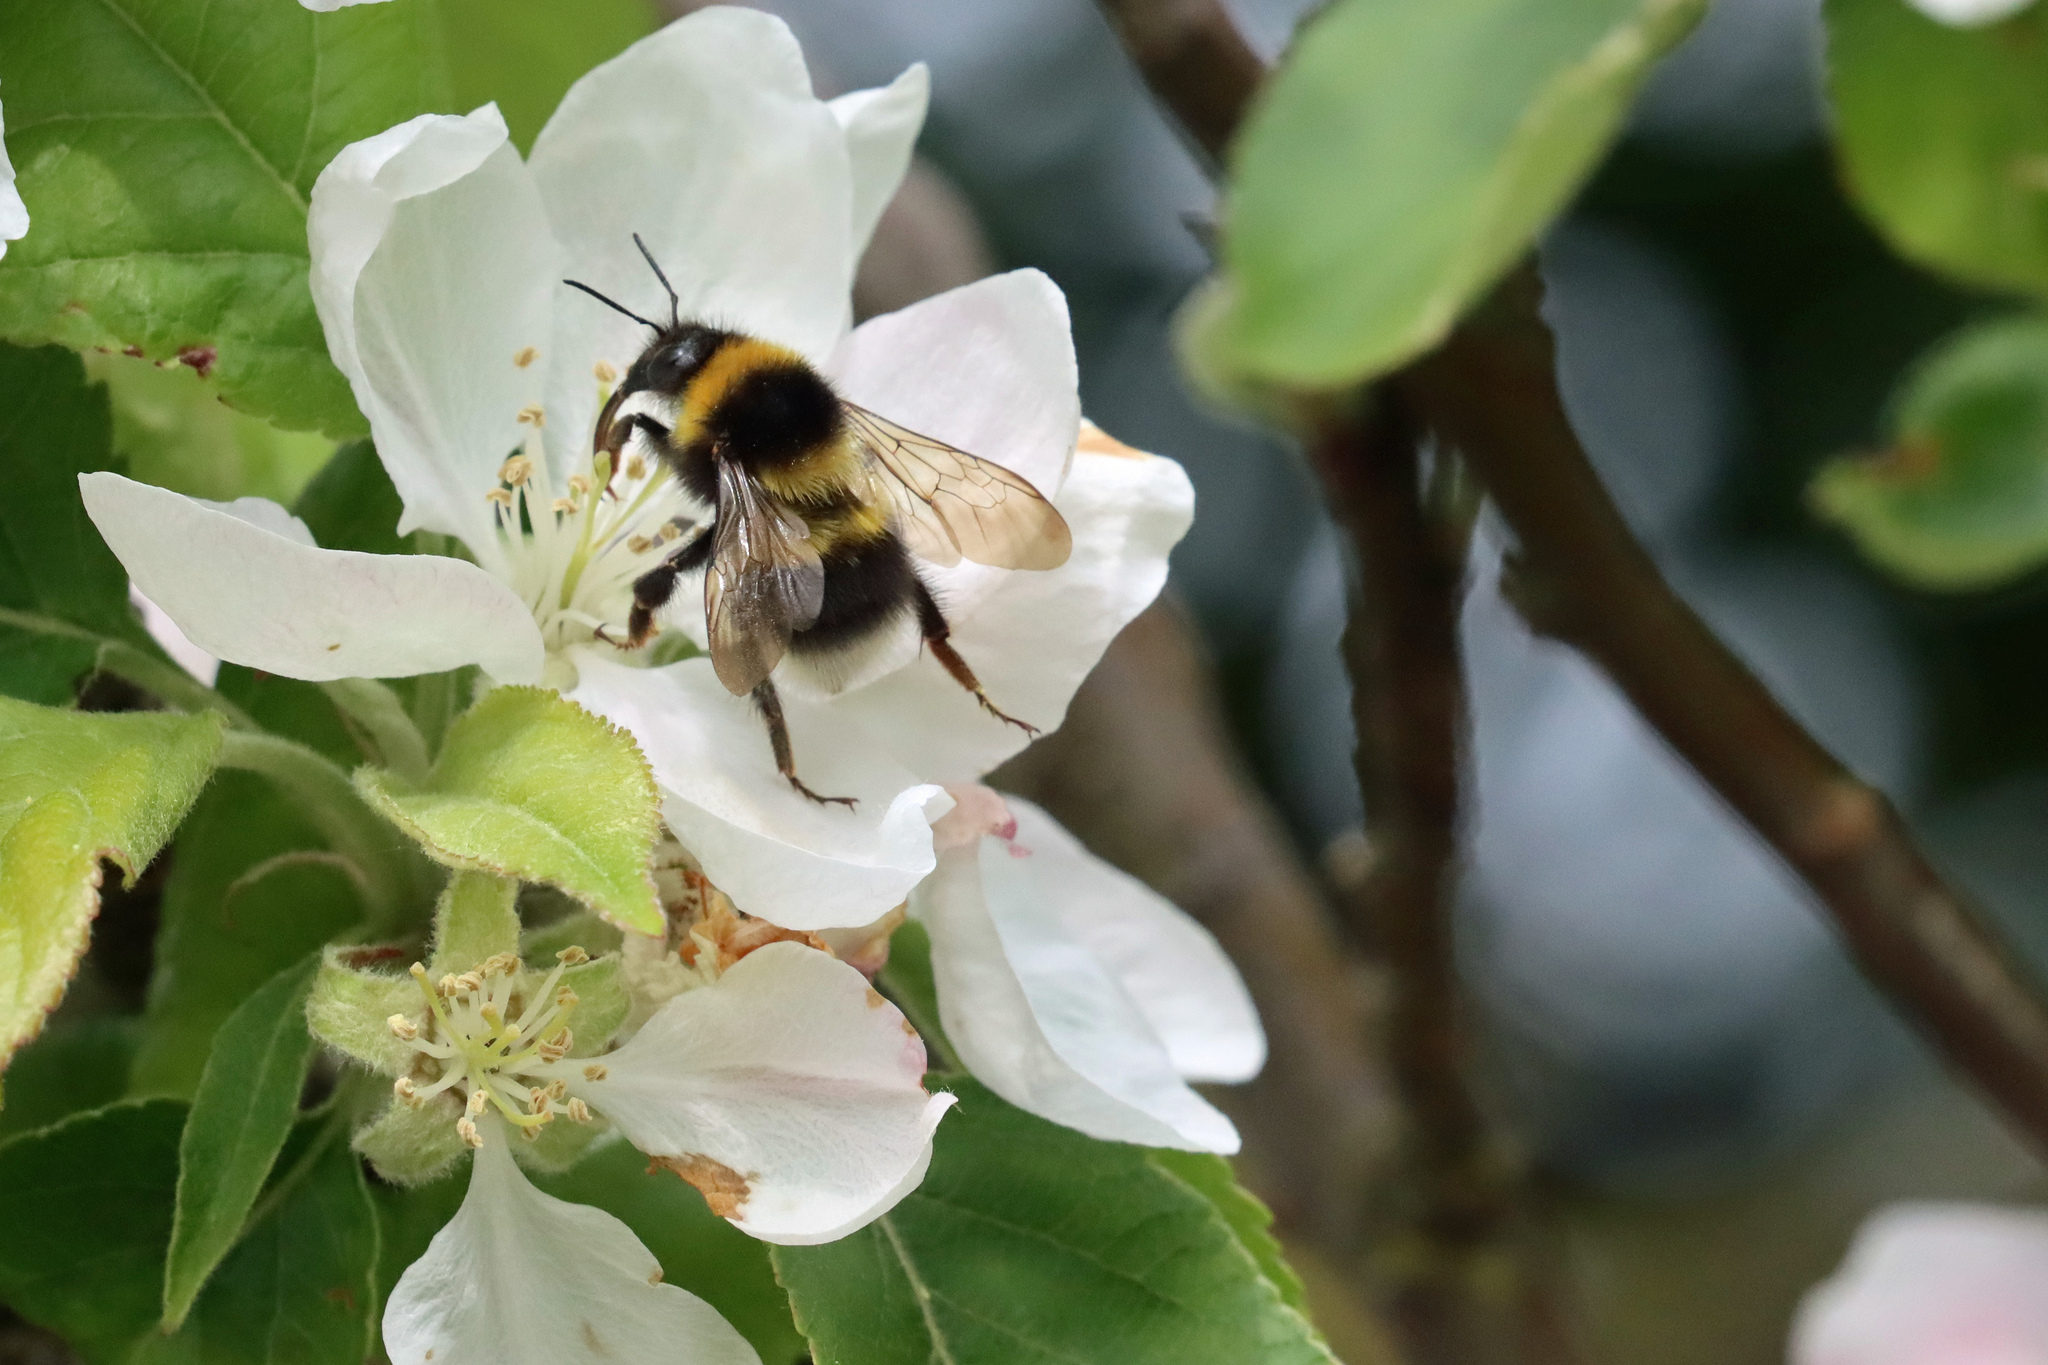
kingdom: Animalia
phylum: Arthropoda
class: Insecta
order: Hymenoptera
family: Apidae
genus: Bombus
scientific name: Bombus hortorum
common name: Garden bumblebee
